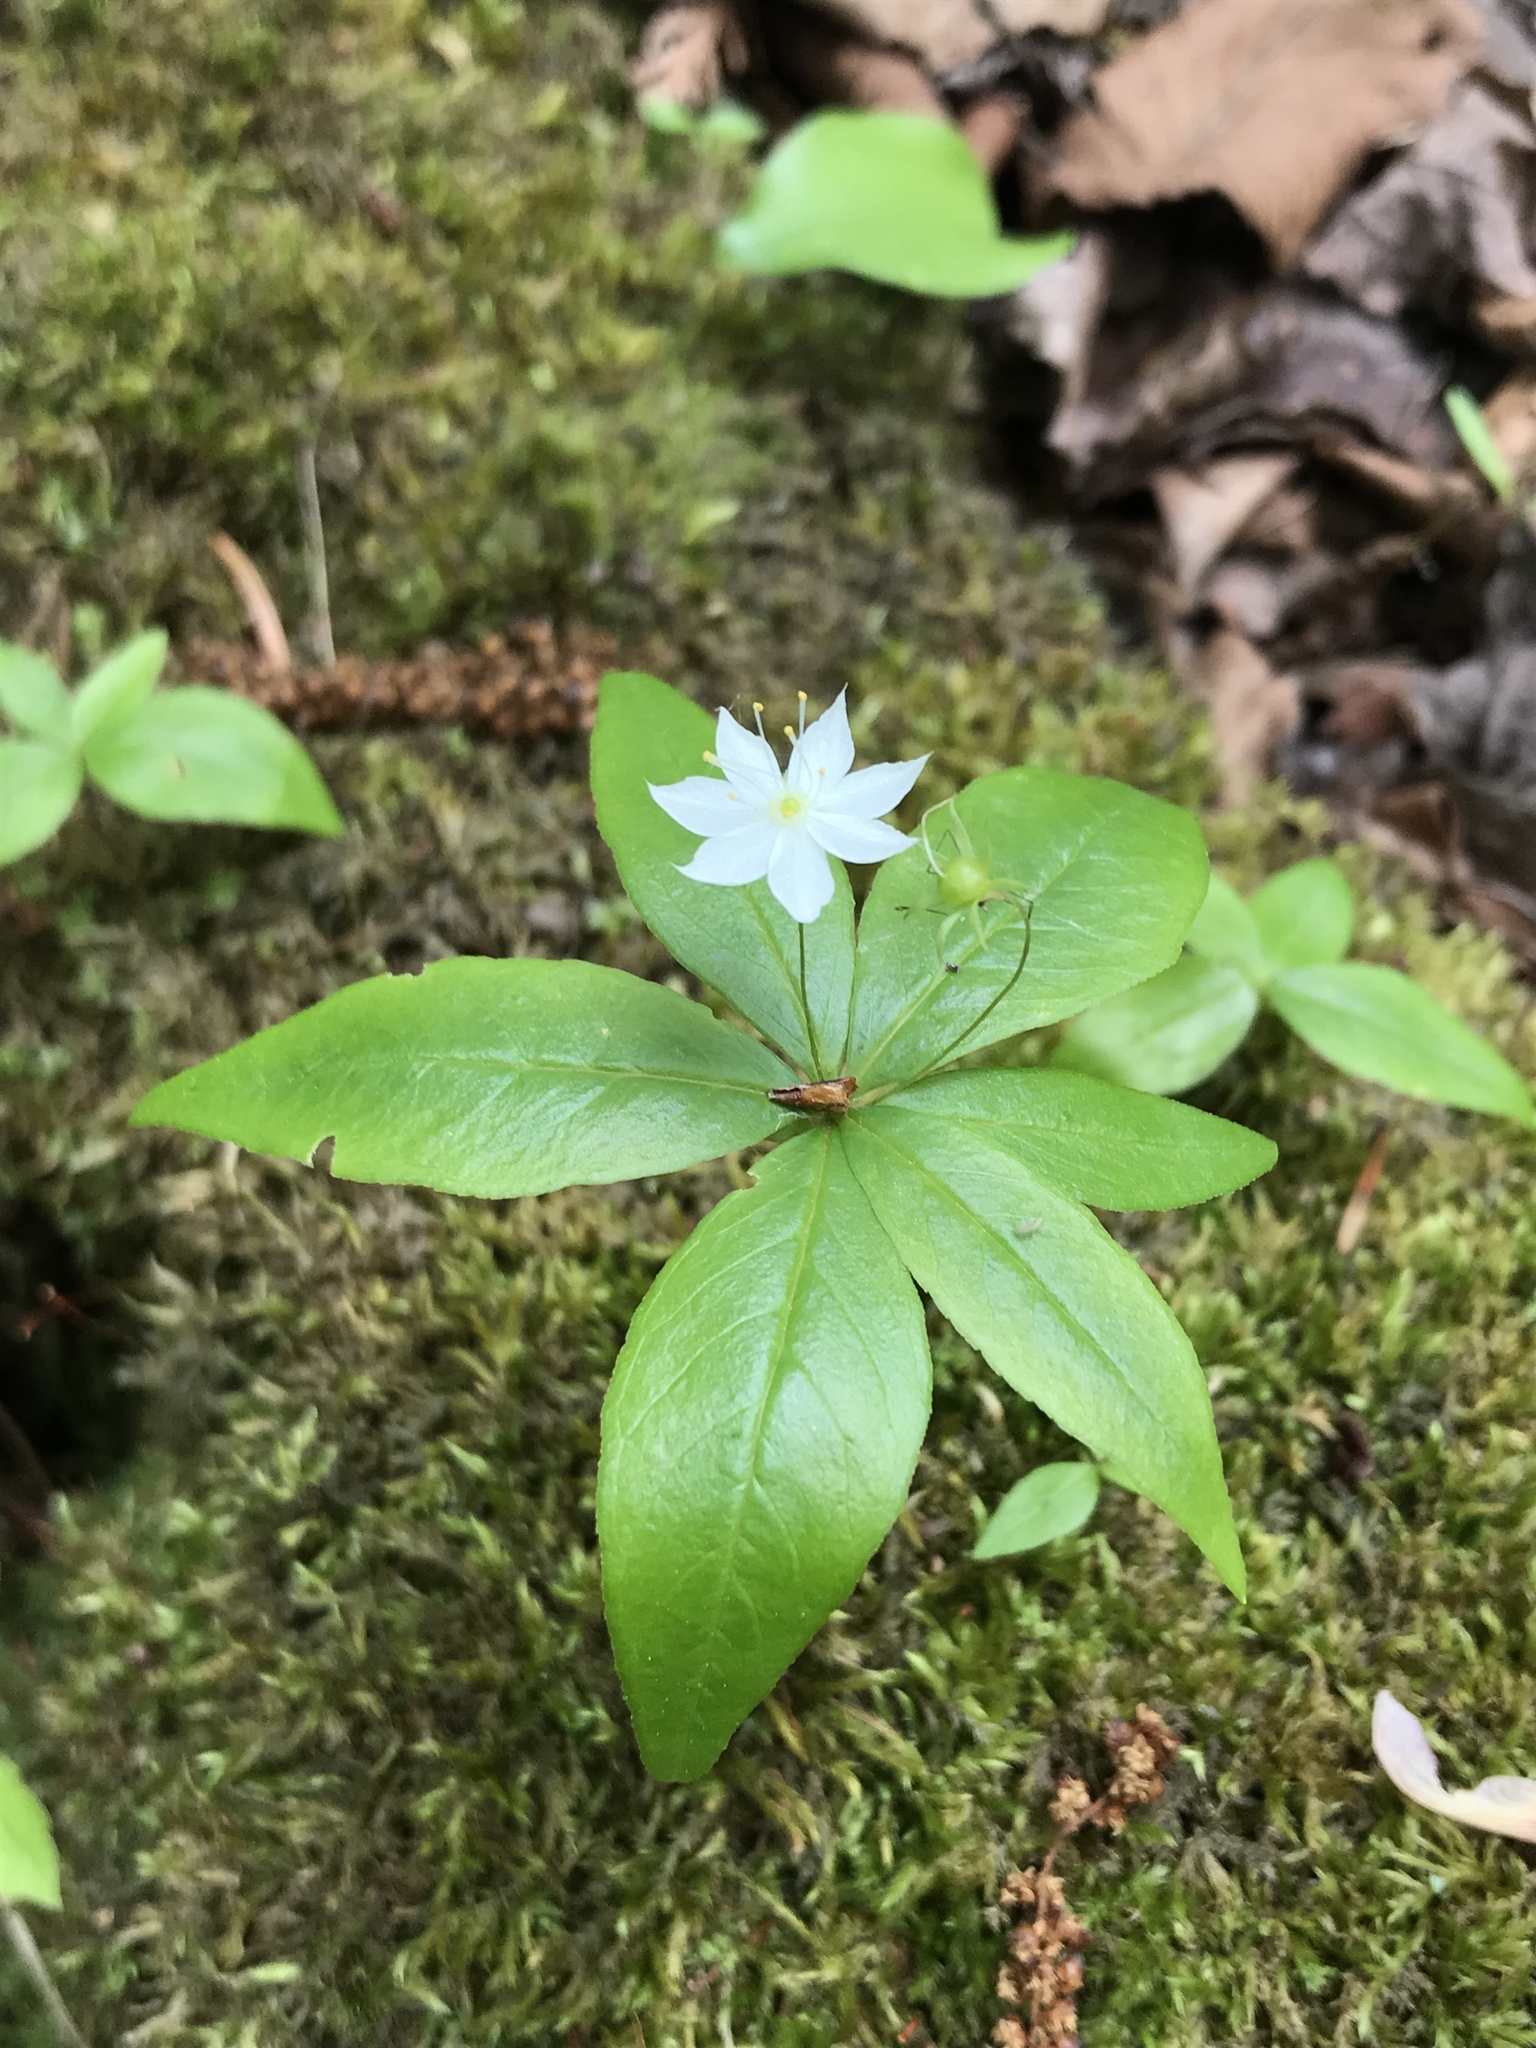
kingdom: Plantae
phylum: Tracheophyta
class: Magnoliopsida
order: Ericales
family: Primulaceae
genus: Lysimachia
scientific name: Lysimachia borealis
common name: American starflower
